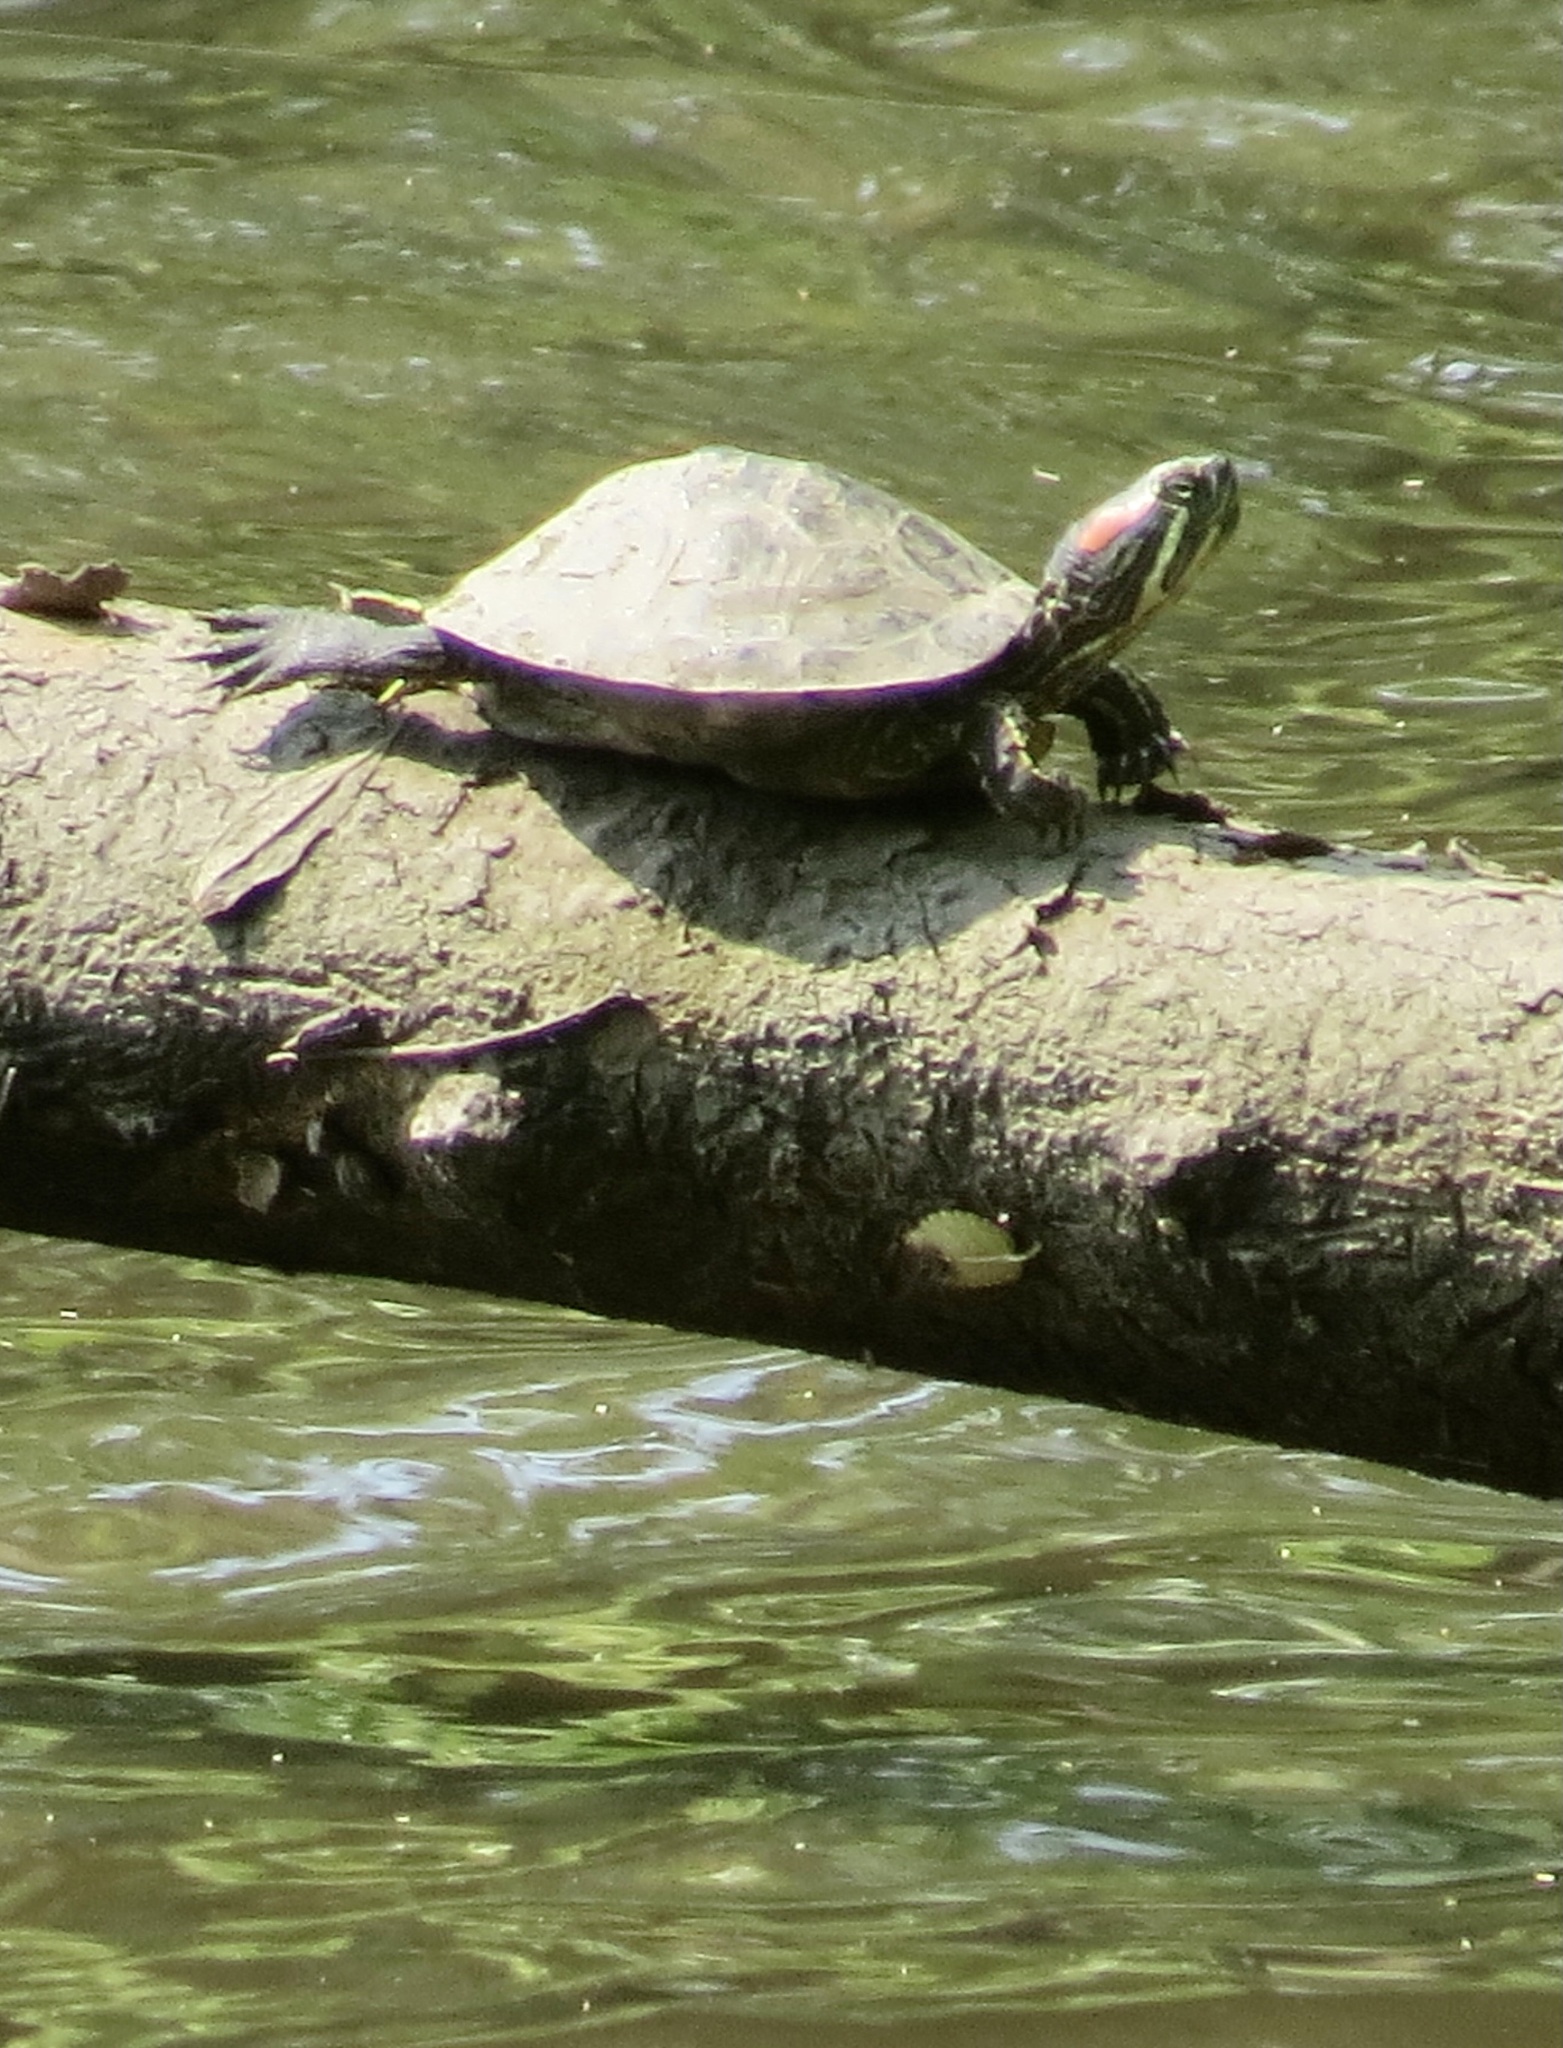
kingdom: Animalia
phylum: Chordata
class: Testudines
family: Emydidae
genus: Trachemys
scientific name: Trachemys scripta
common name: Slider
